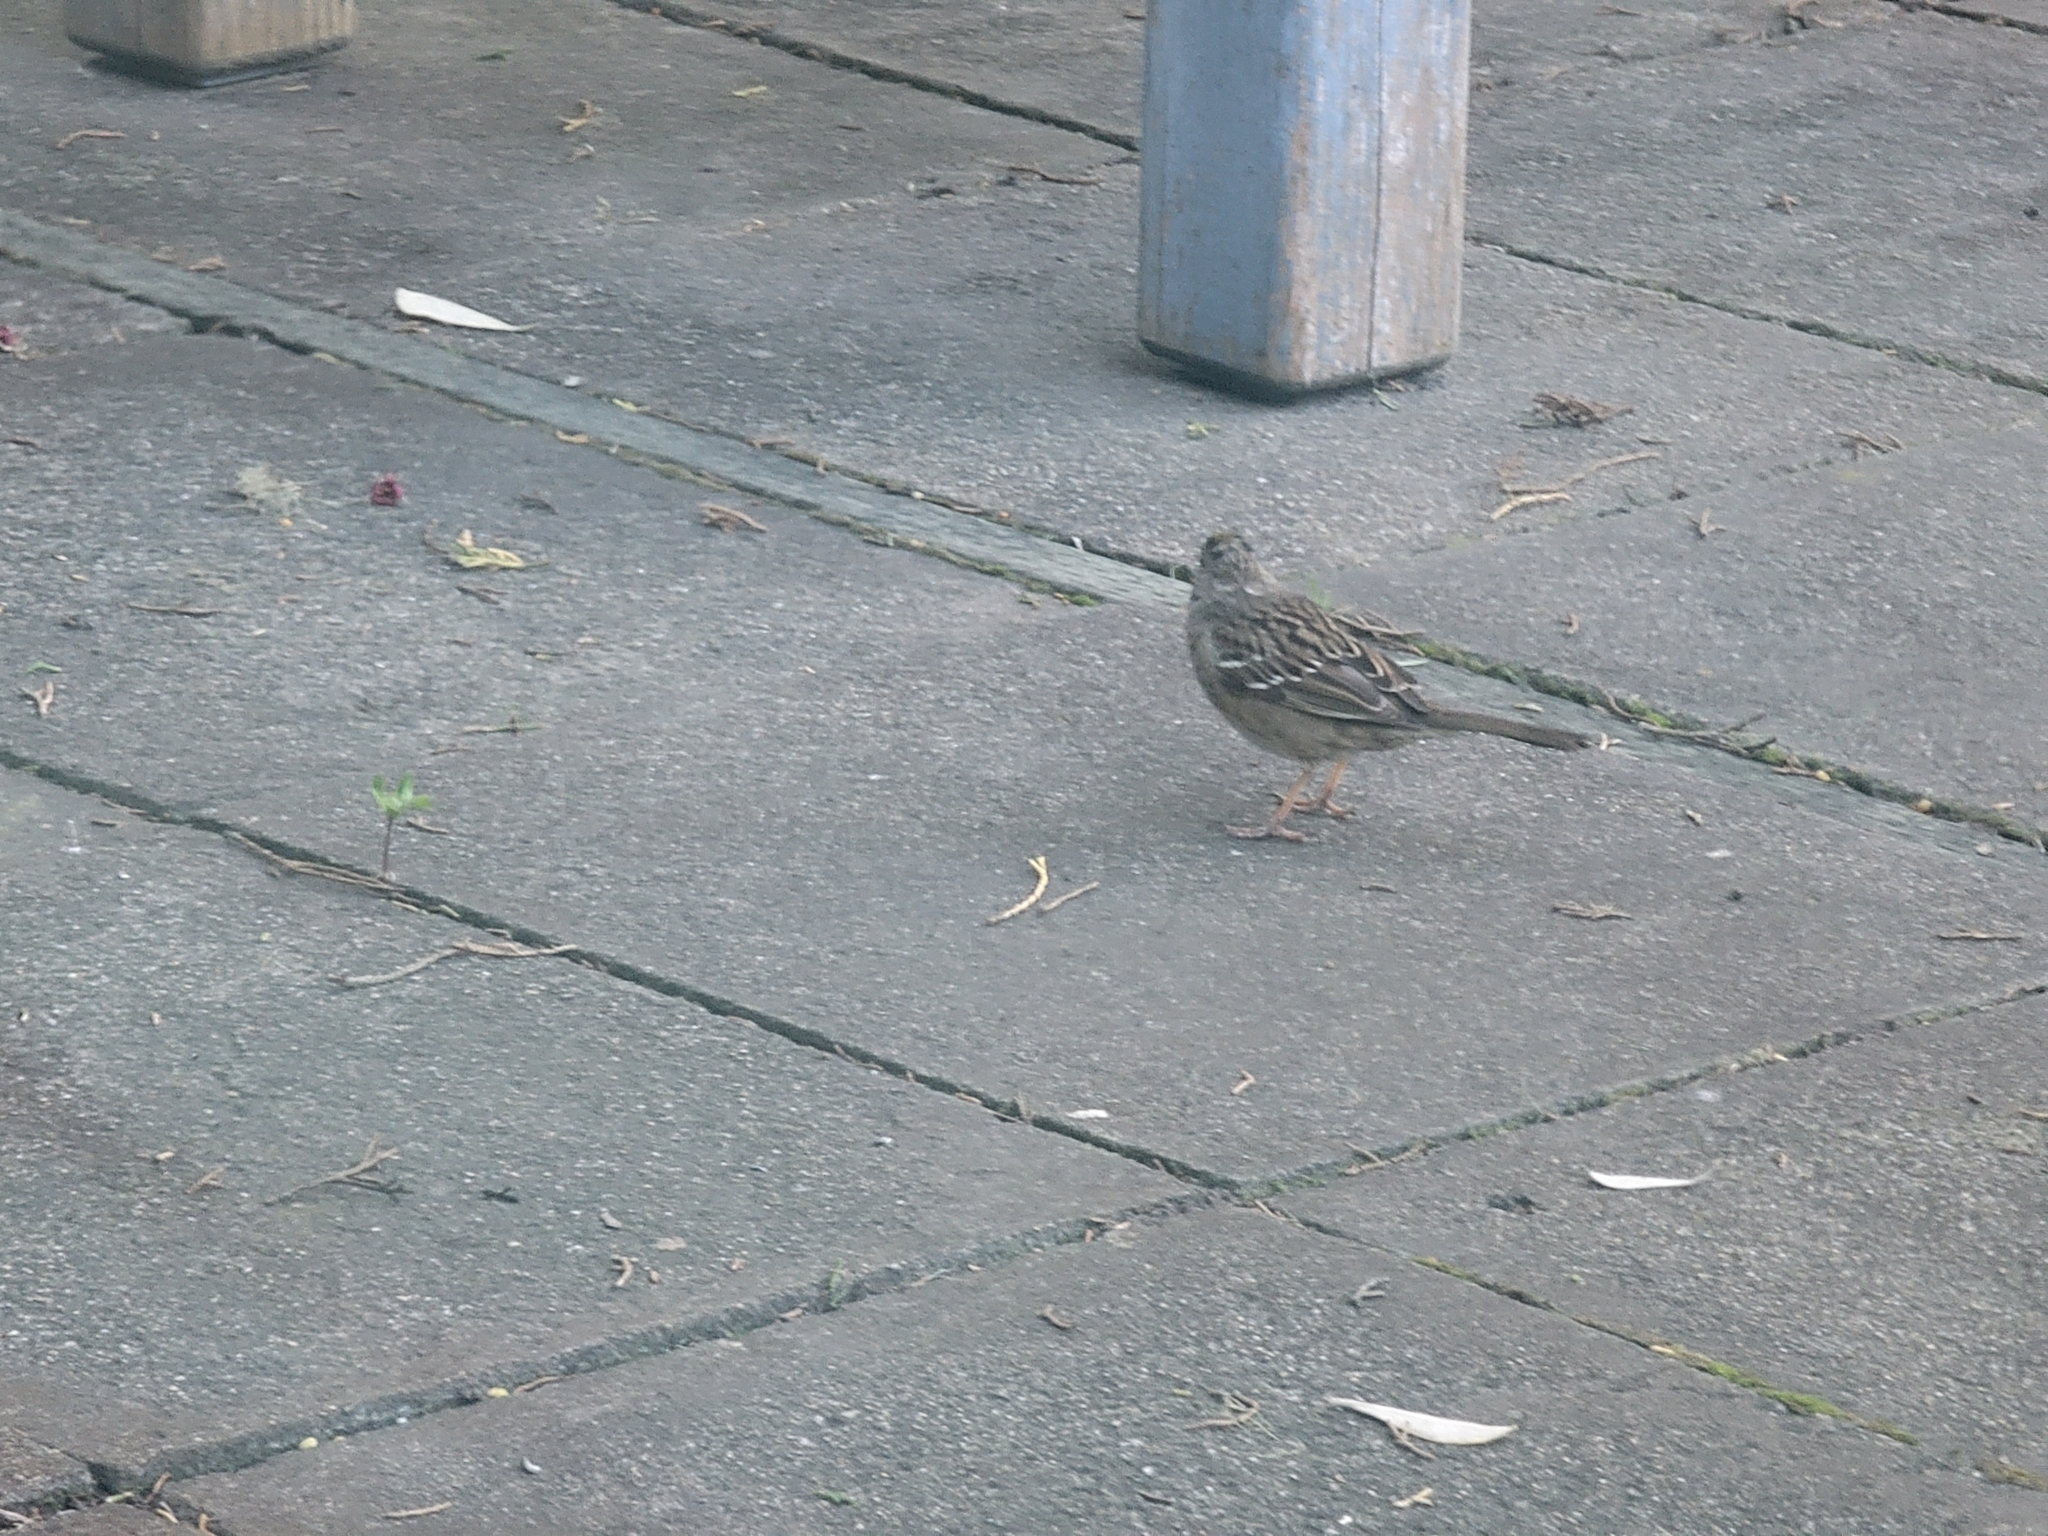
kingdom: Animalia
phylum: Chordata
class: Aves
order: Passeriformes
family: Passerellidae
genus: Zonotrichia
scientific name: Zonotrichia atricapilla
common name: Golden-crowned sparrow
